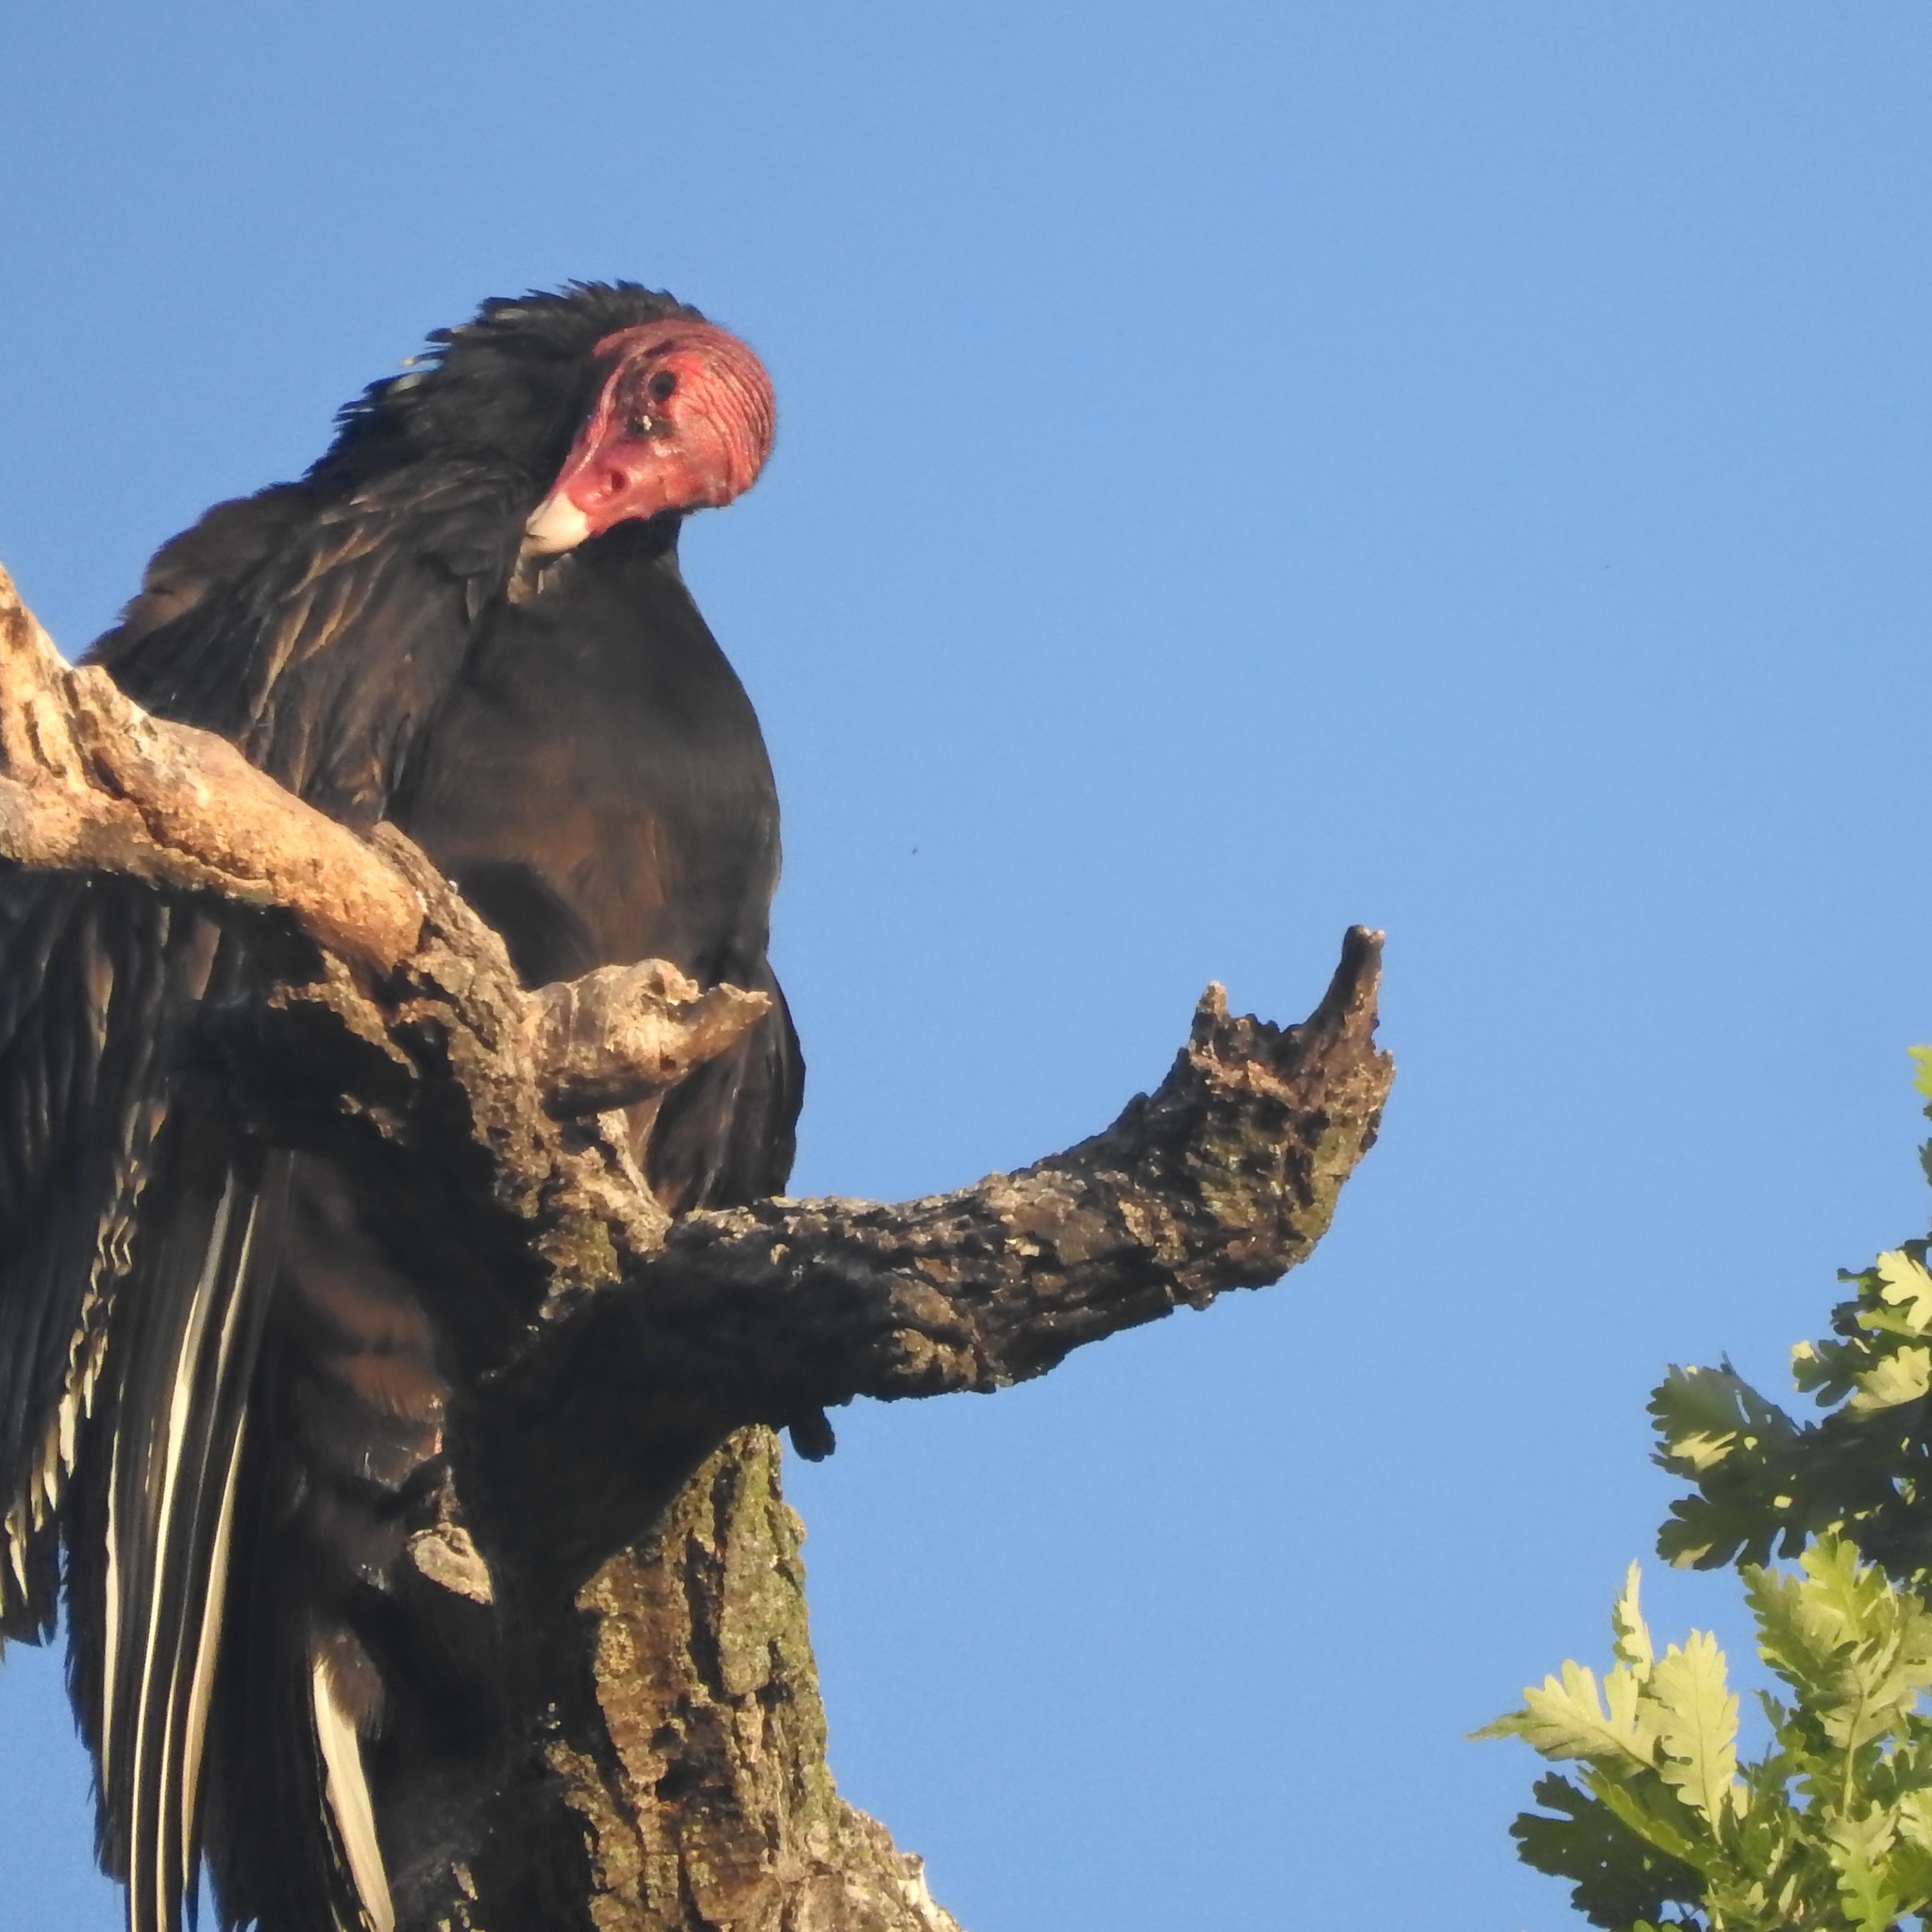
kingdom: Animalia
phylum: Chordata
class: Aves
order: Accipitriformes
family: Cathartidae
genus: Cathartes
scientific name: Cathartes aura
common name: Turkey vulture
